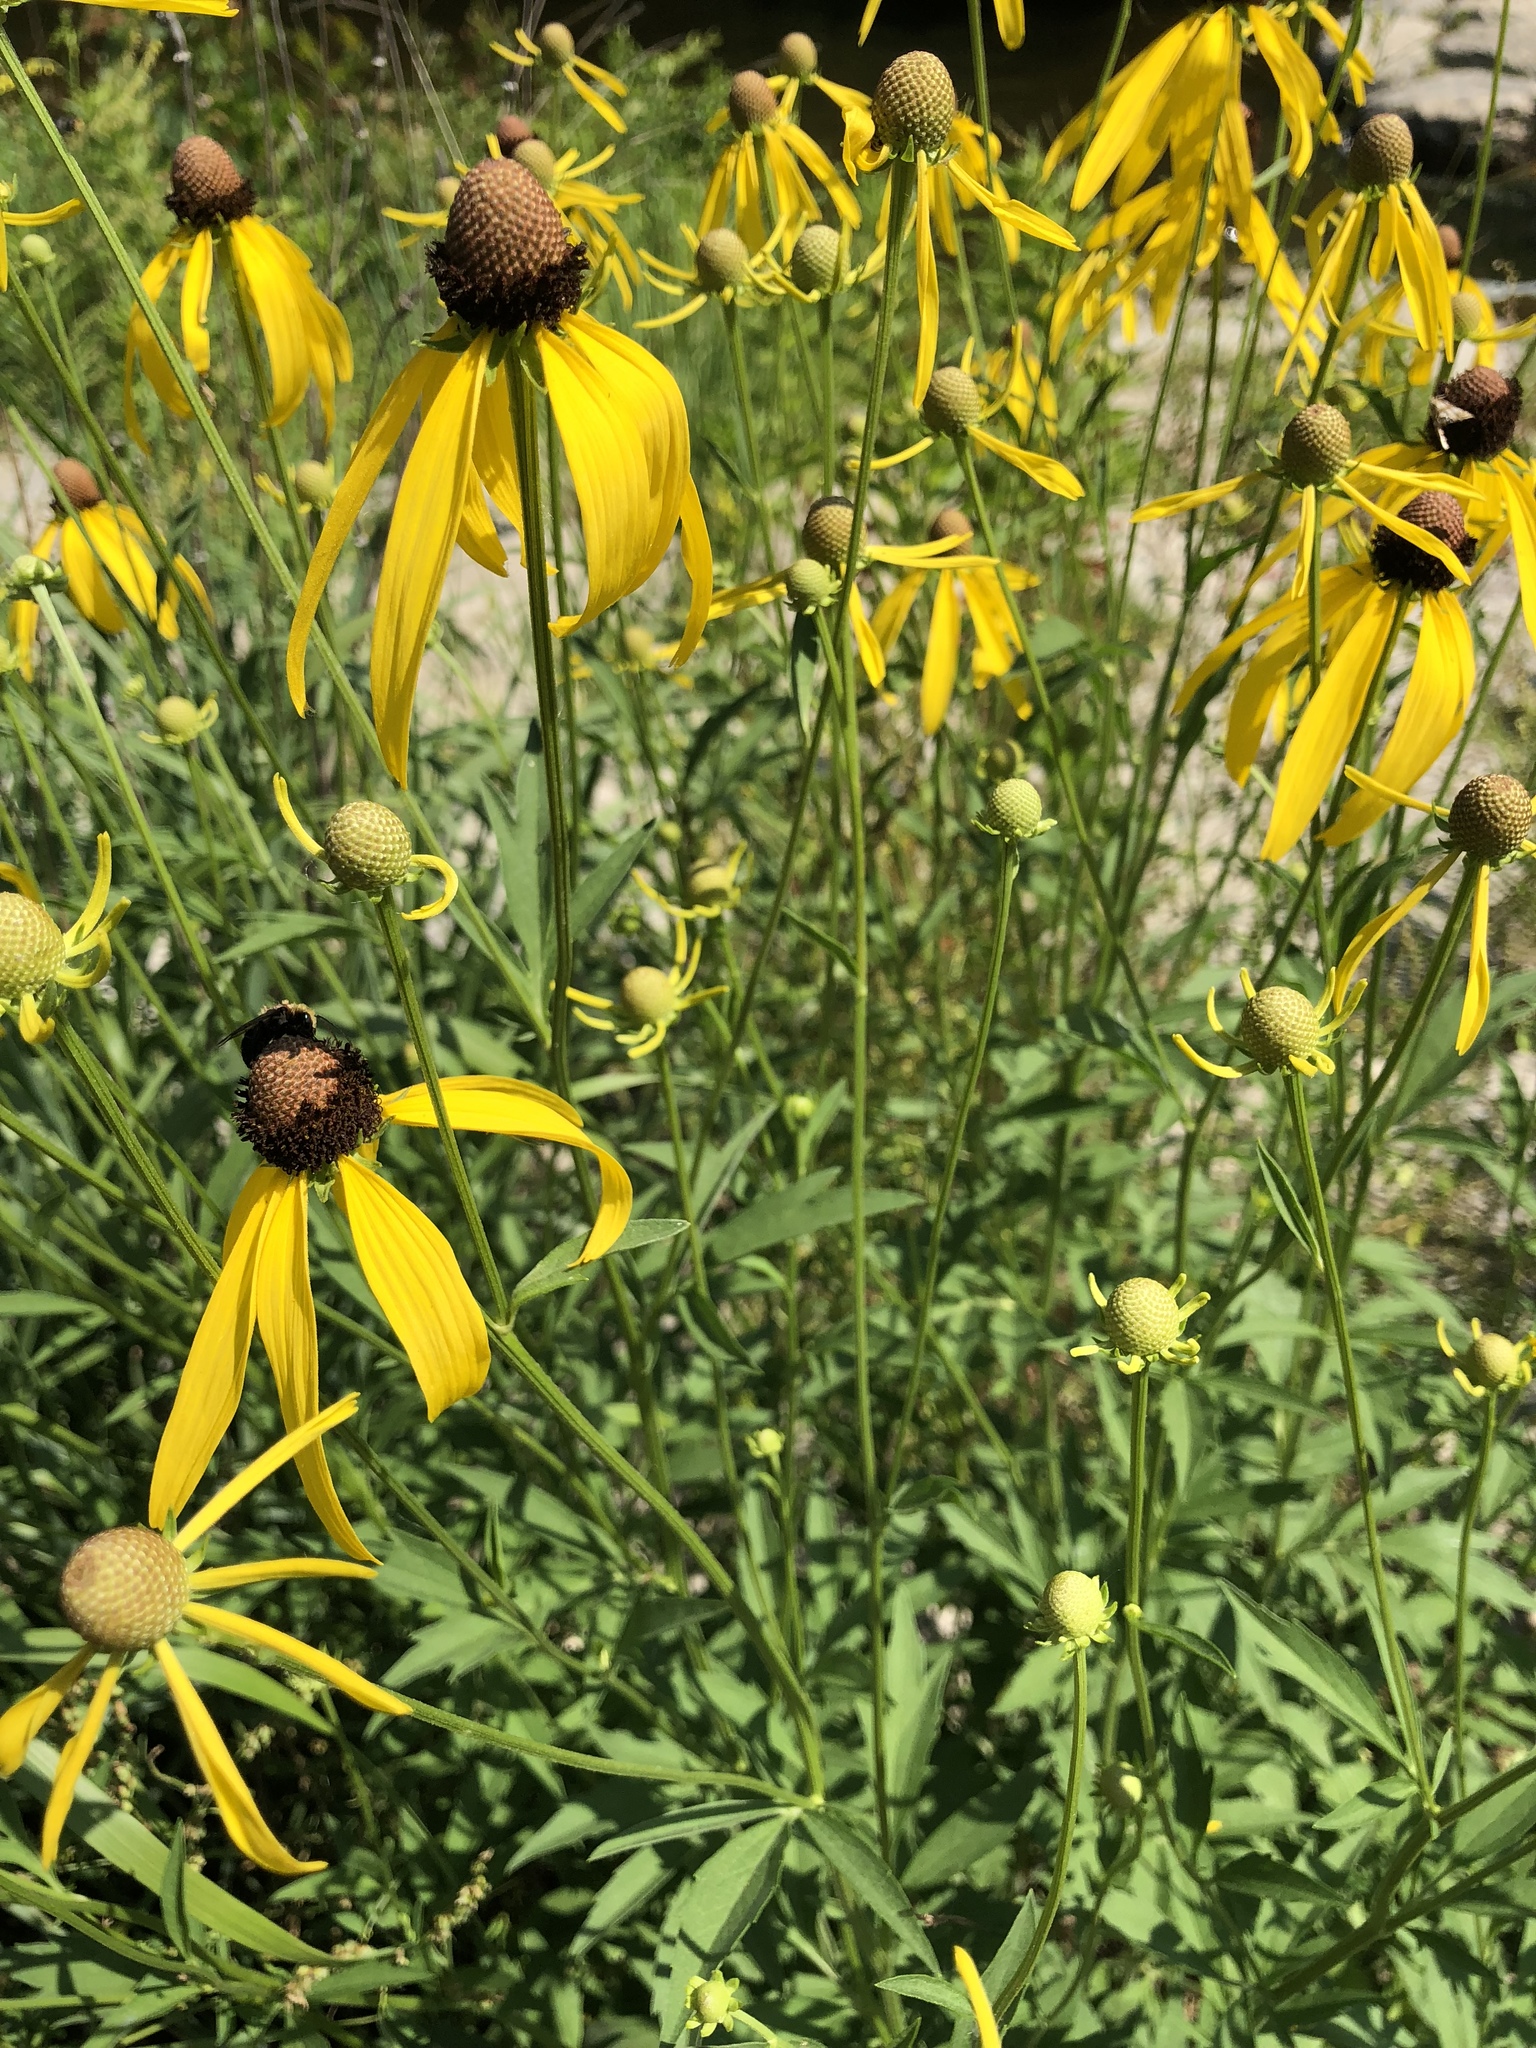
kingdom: Plantae
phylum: Tracheophyta
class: Magnoliopsida
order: Asterales
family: Asteraceae
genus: Ratibida
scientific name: Ratibida pinnata
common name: Drooping prairie-coneflower
